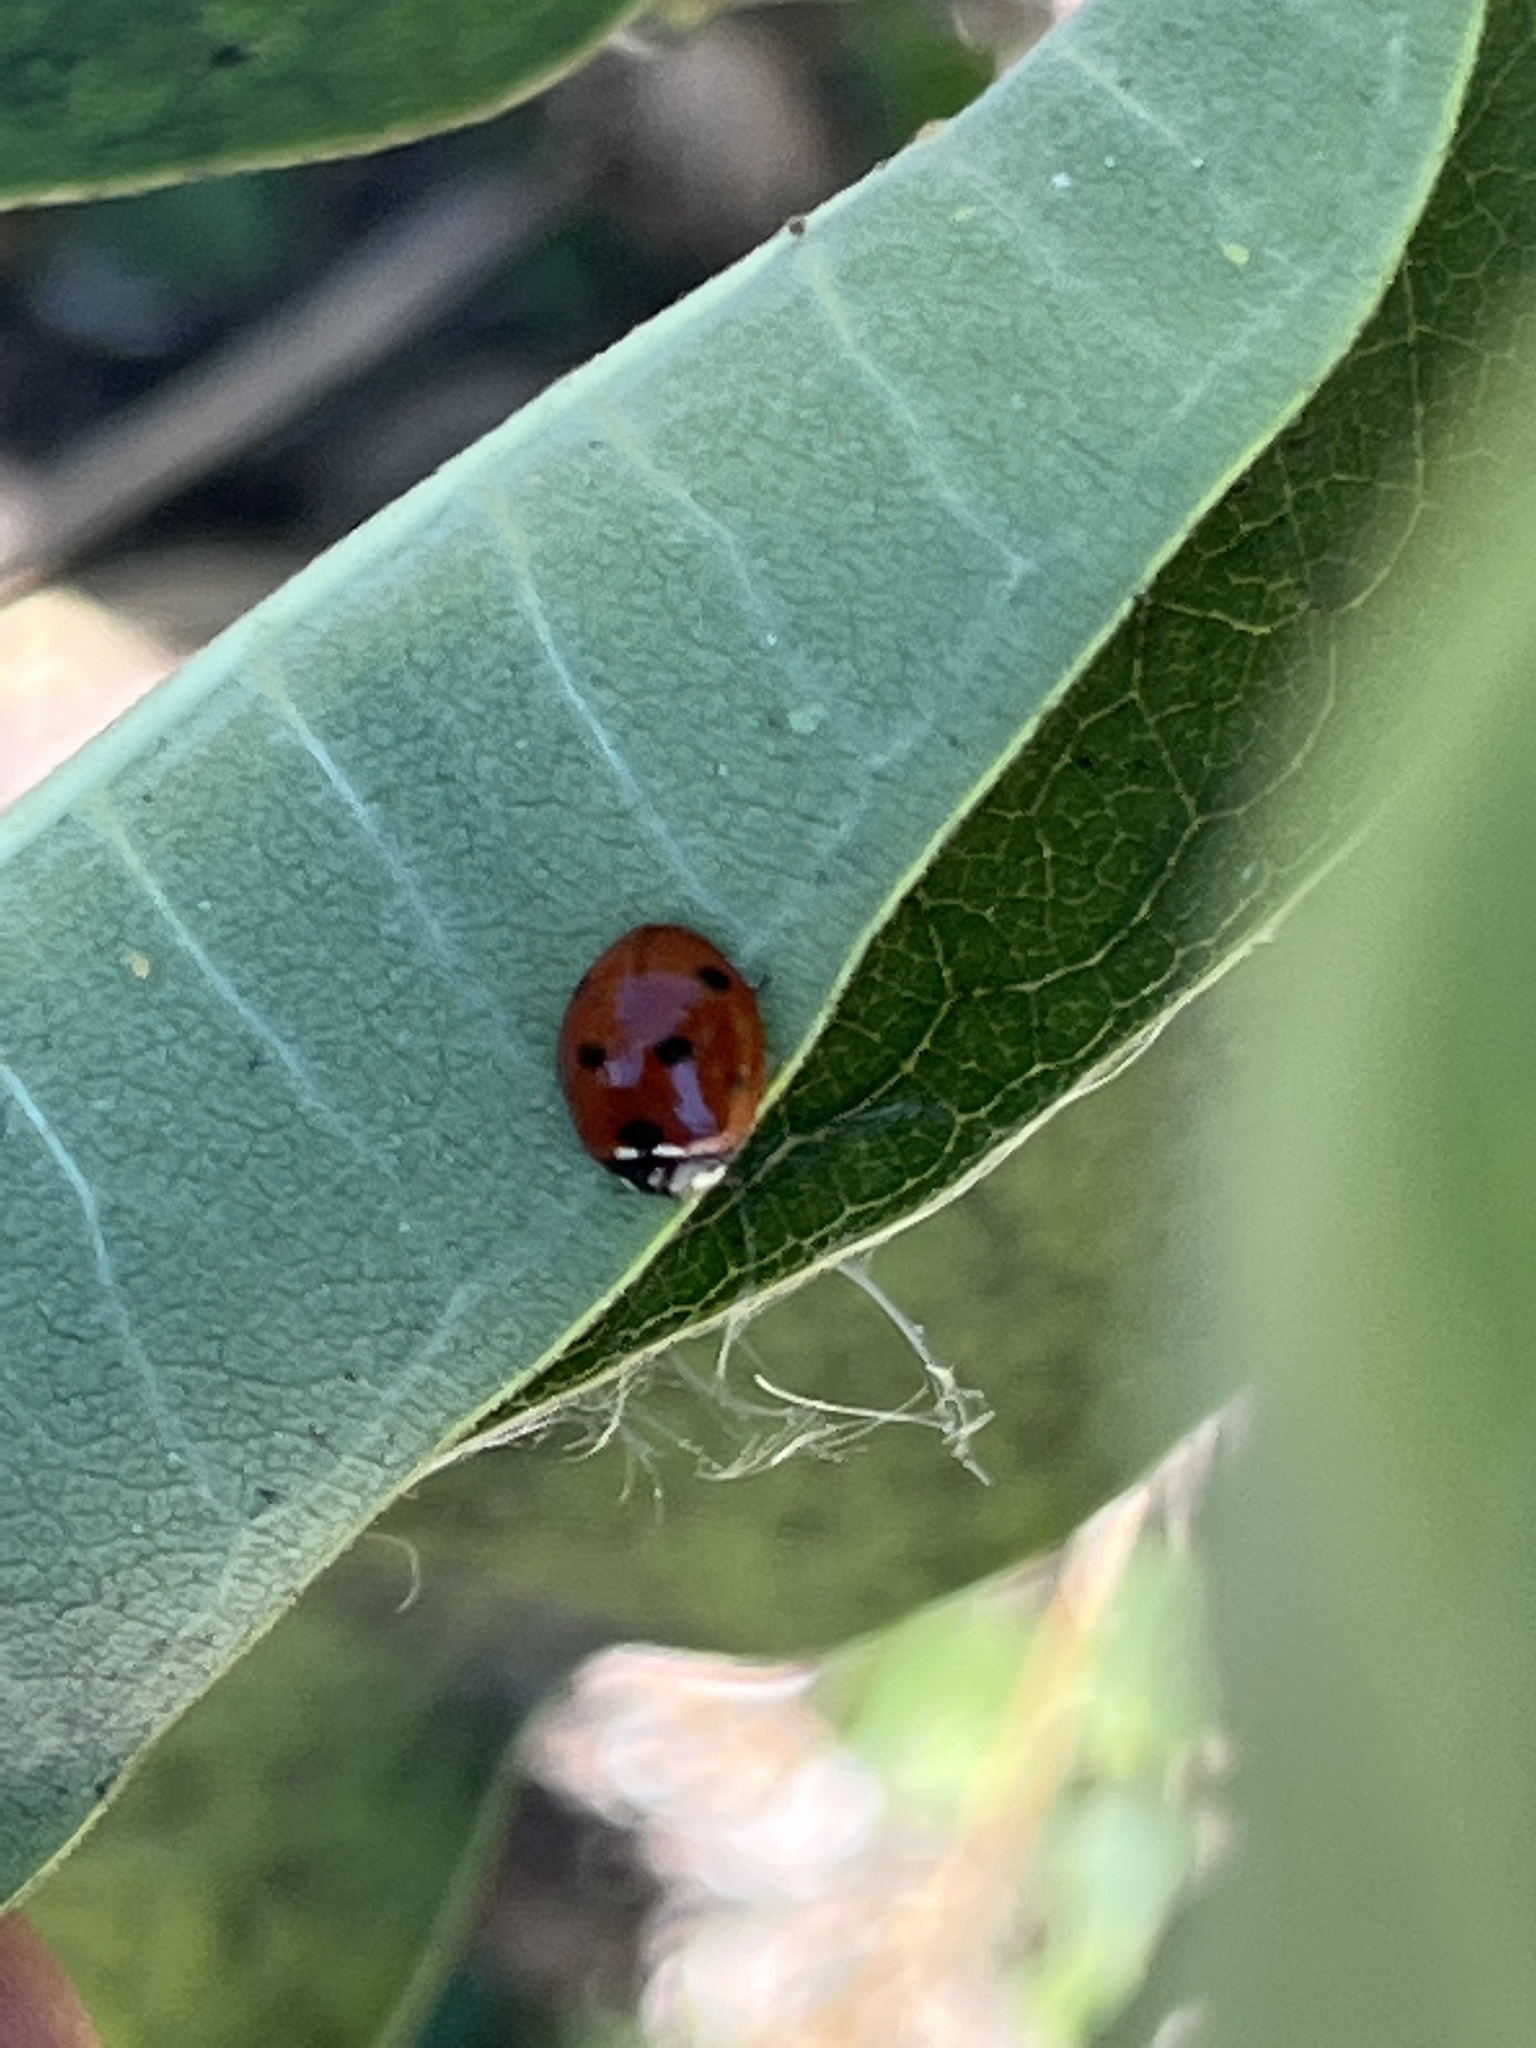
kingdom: Animalia
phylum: Arthropoda
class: Insecta
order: Coleoptera
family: Coccinellidae
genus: Coccinella
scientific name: Coccinella septempunctata
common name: Sevenspotted lady beetle
